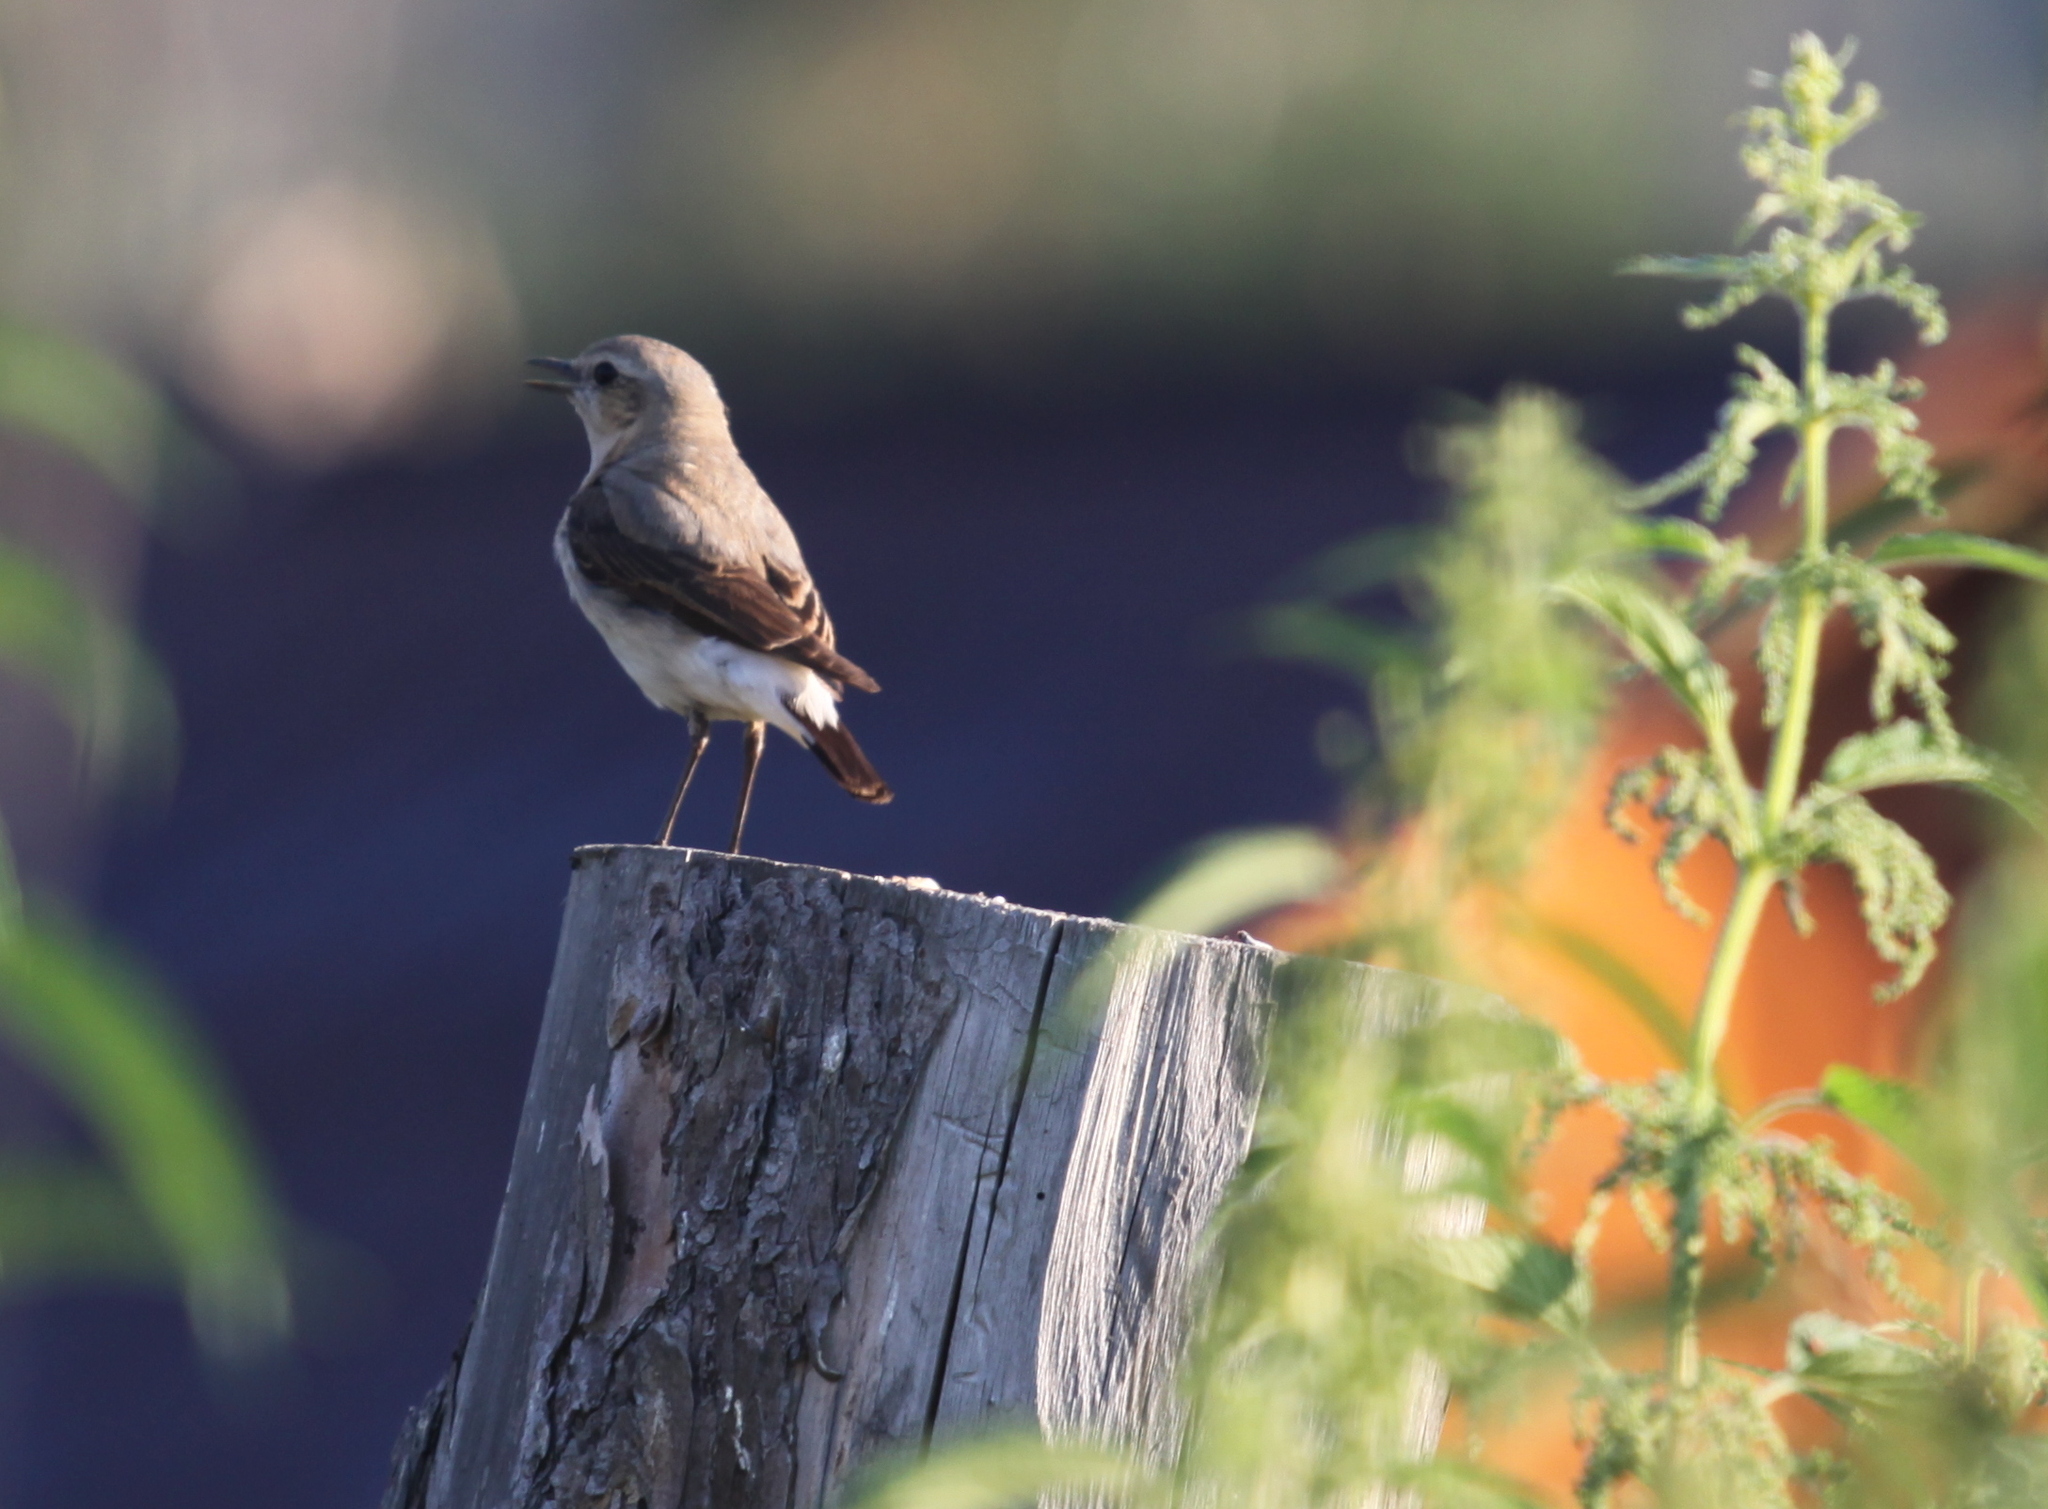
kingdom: Animalia
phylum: Chordata
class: Aves
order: Passeriformes
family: Muscicapidae
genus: Oenanthe
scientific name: Oenanthe oenanthe
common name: Northern wheatear
